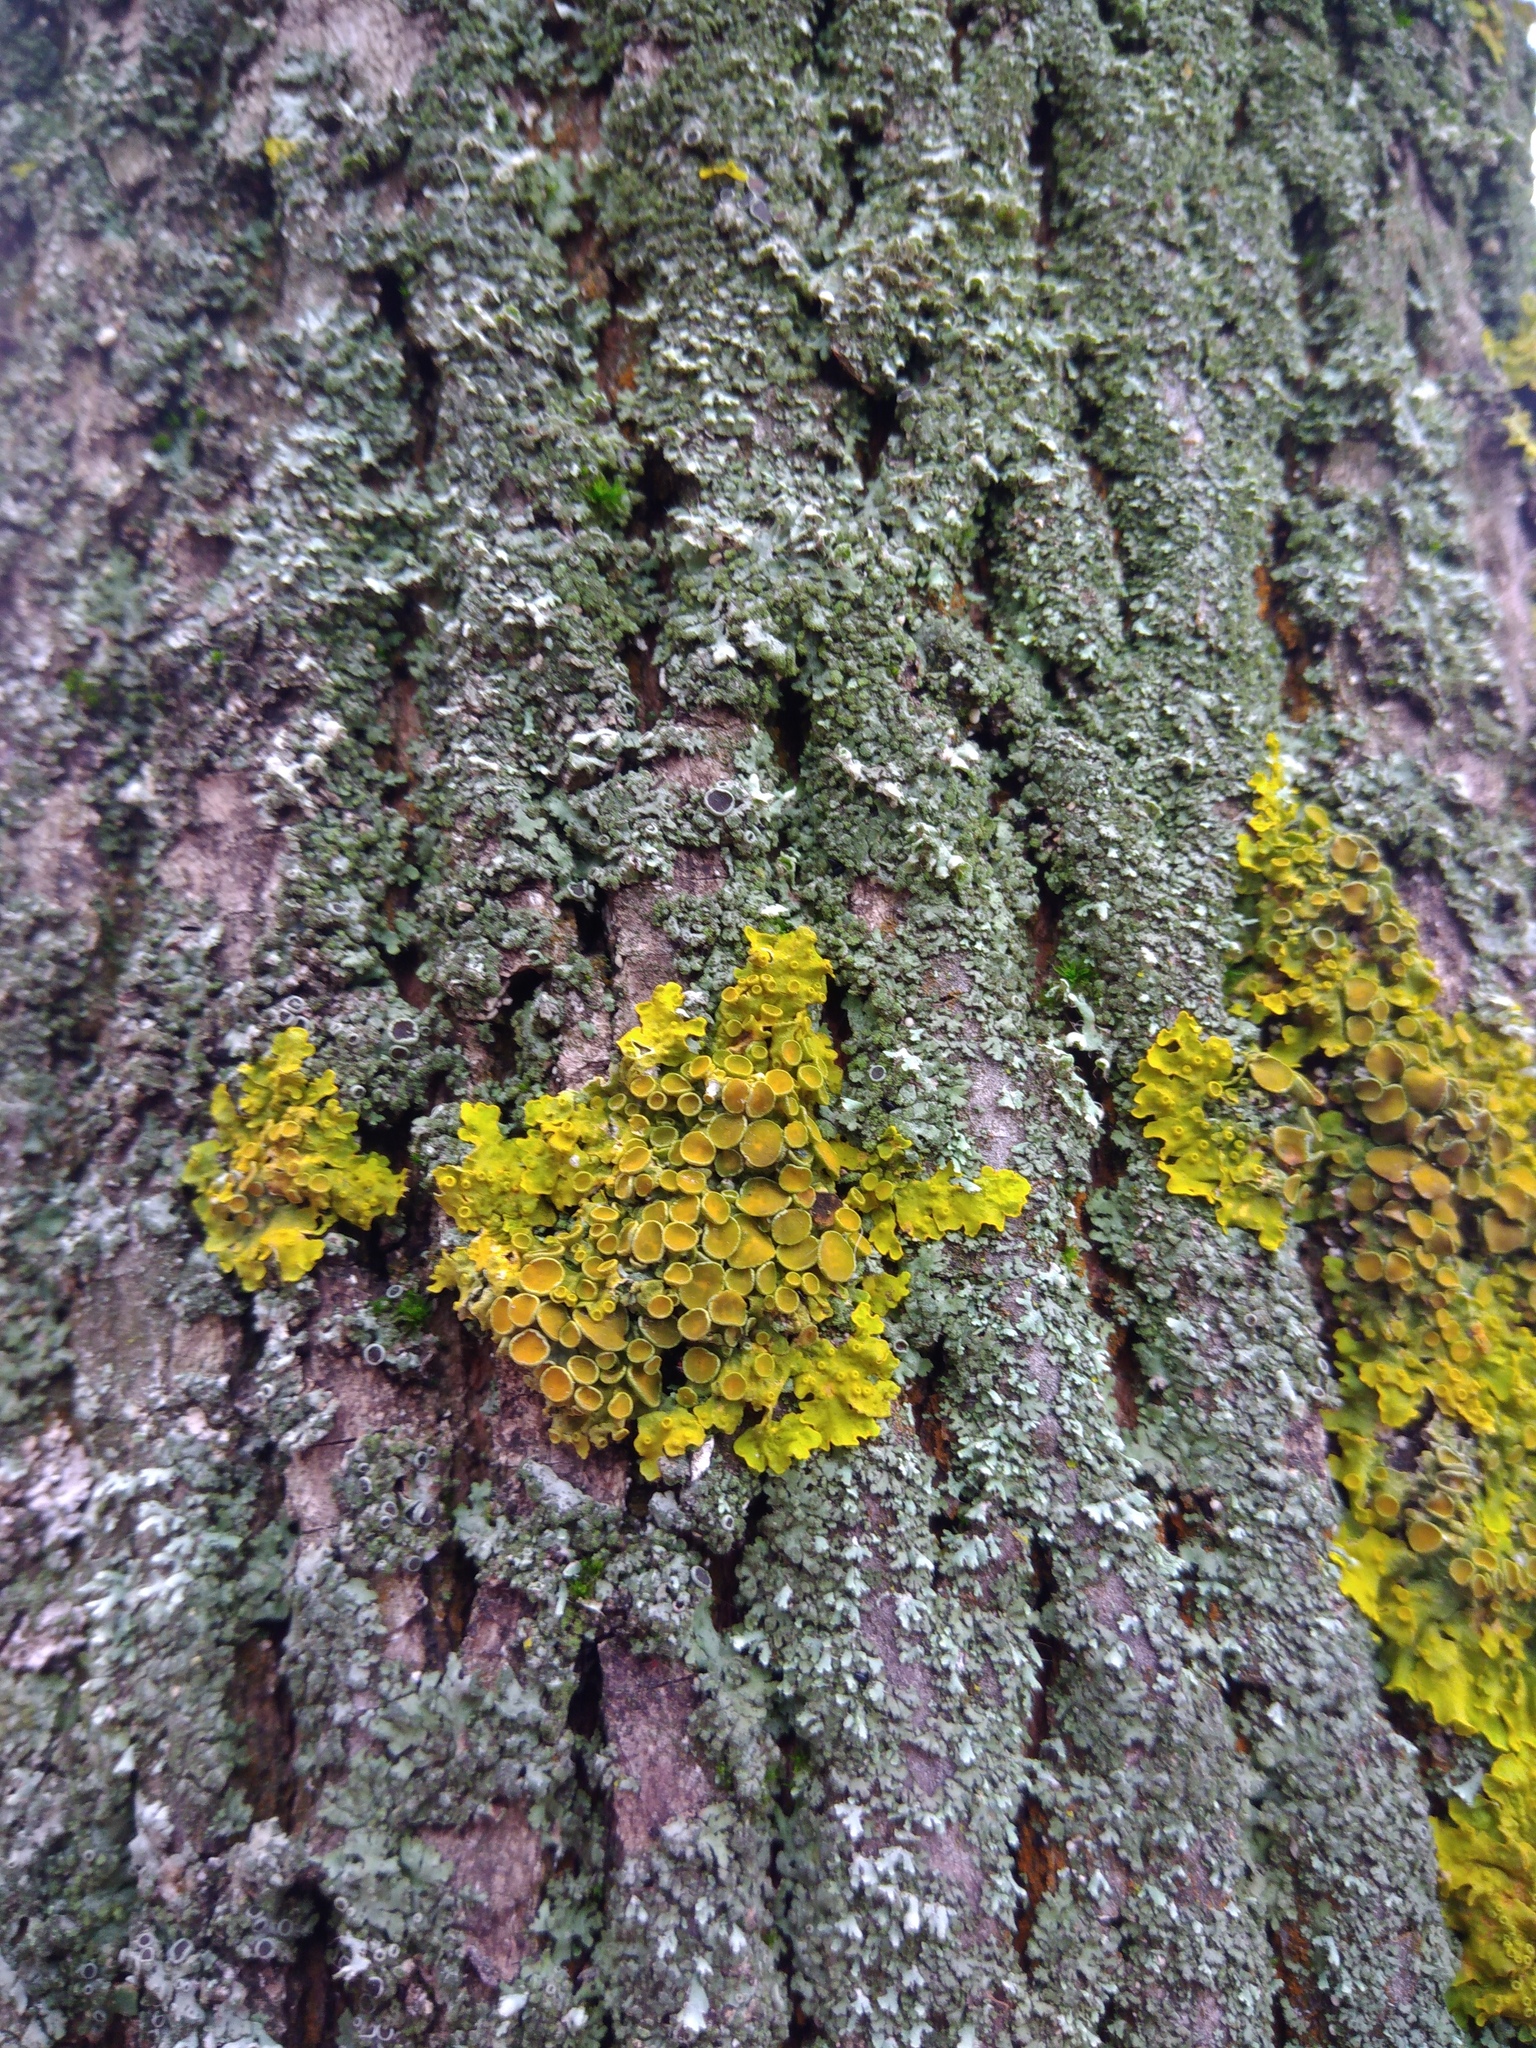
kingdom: Fungi
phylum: Ascomycota
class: Lecanoromycetes
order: Teloschistales
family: Teloschistaceae
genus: Xanthoria
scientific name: Xanthoria parietina
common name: Common orange lichen
